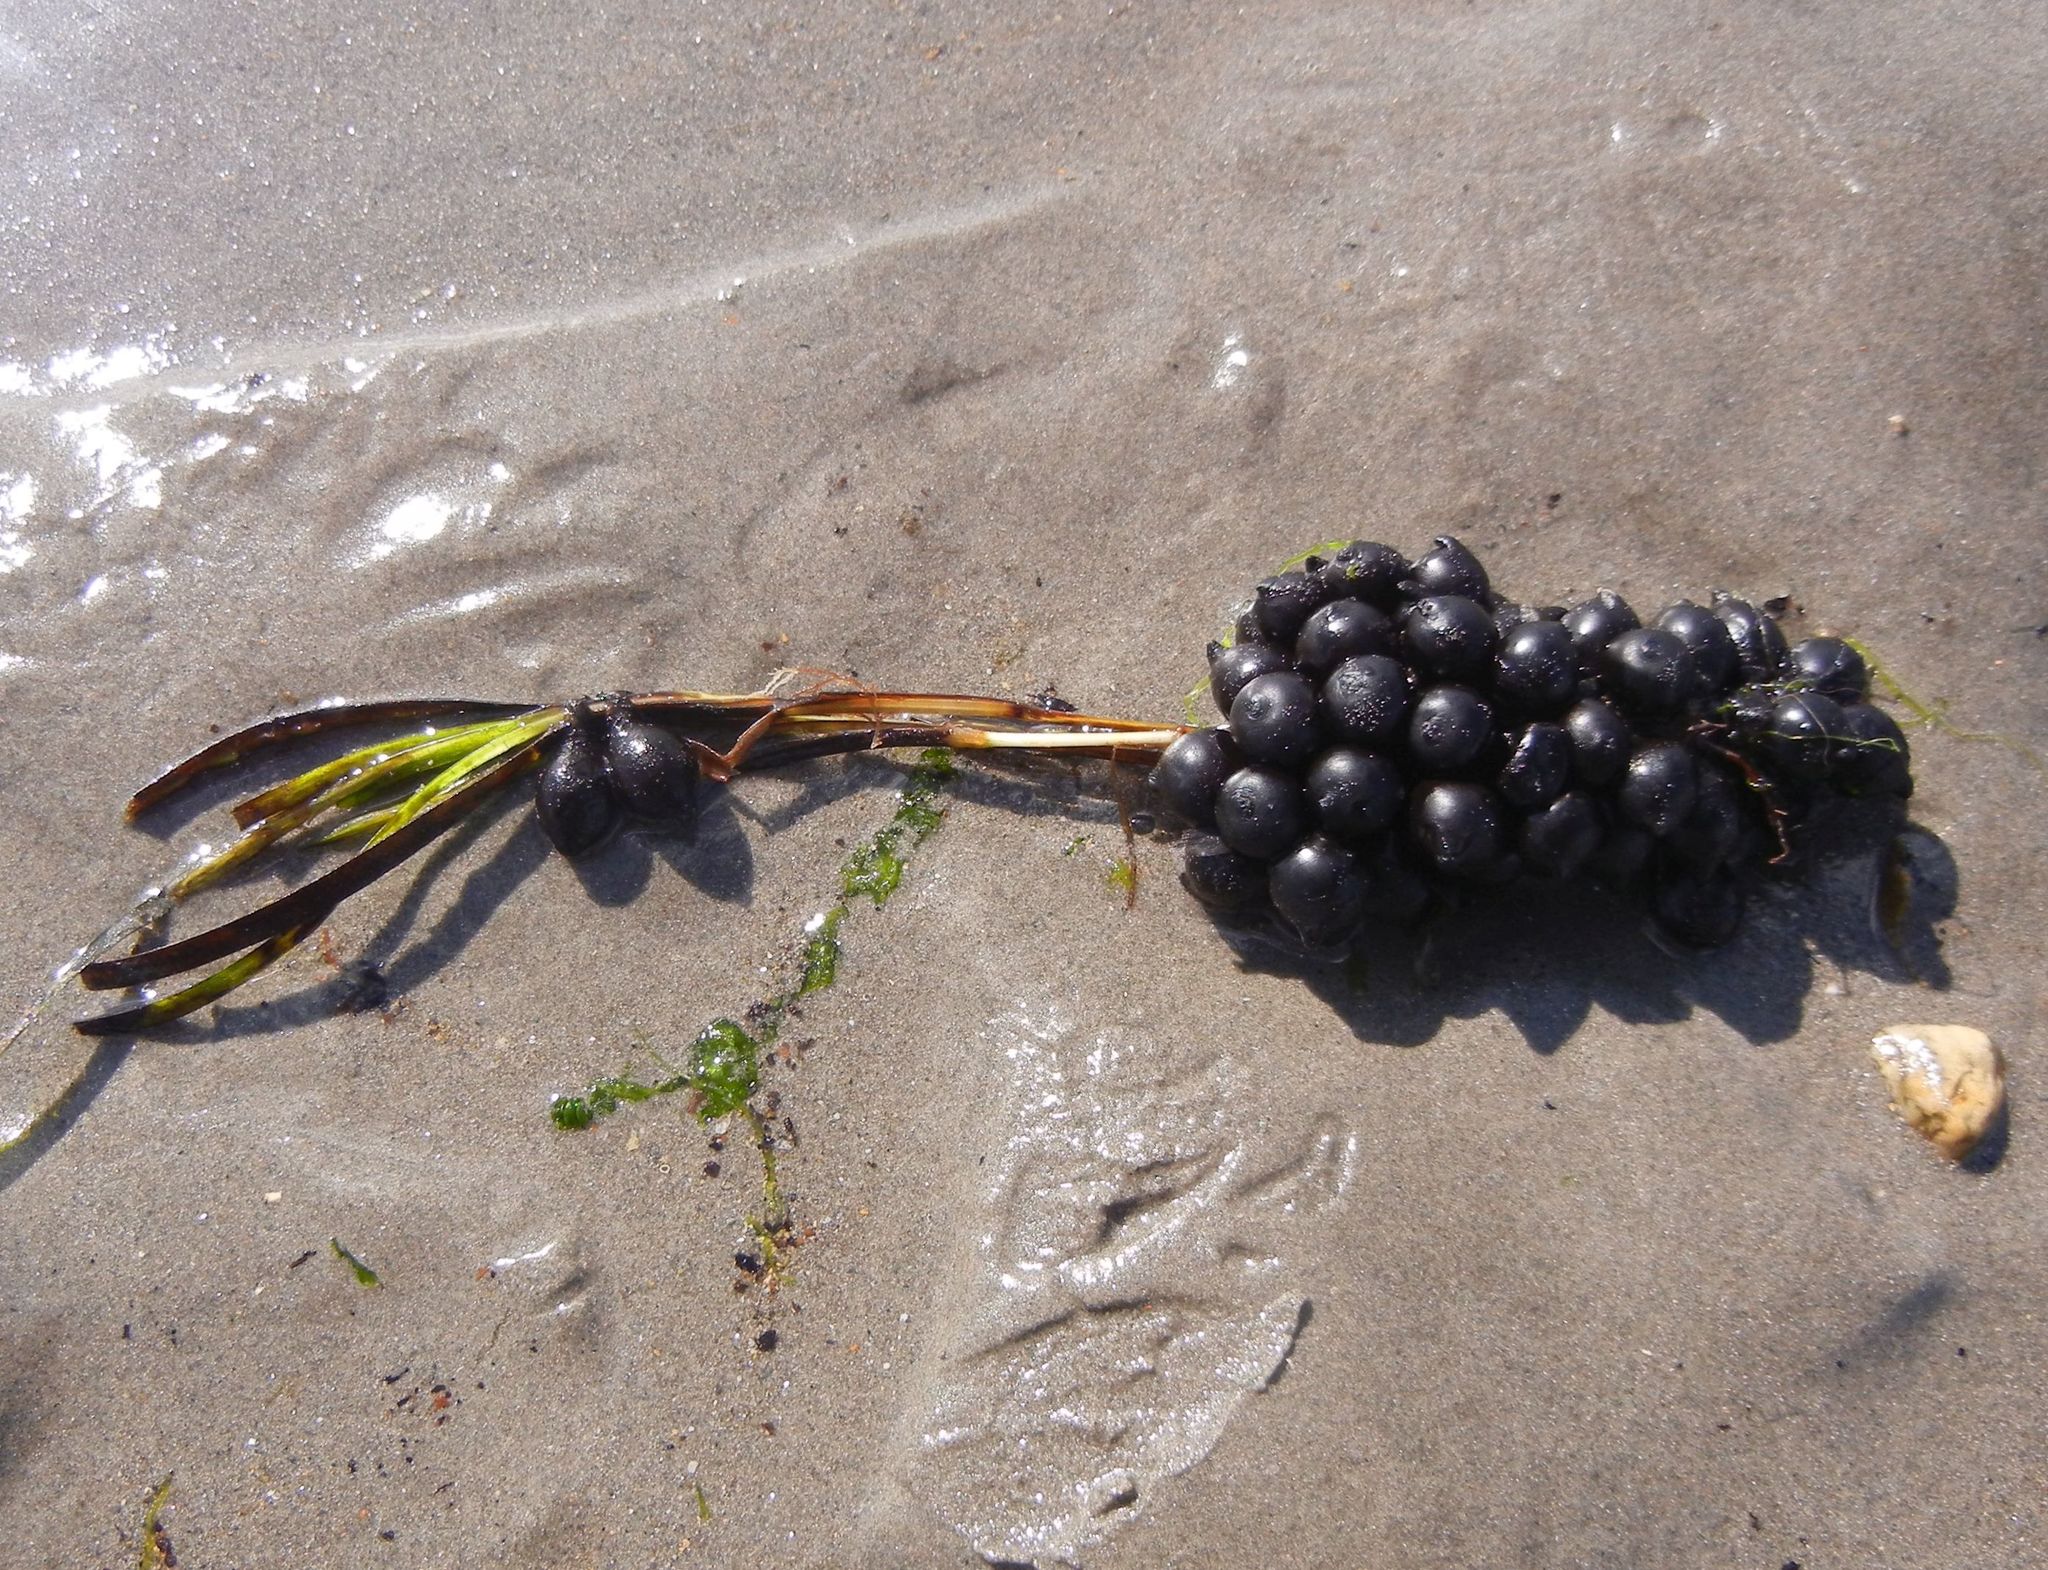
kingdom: Animalia
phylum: Mollusca
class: Cephalopoda
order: Sepiida
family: Sepiidae
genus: Sepia
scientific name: Sepia officinalis
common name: Common cuttlefish
